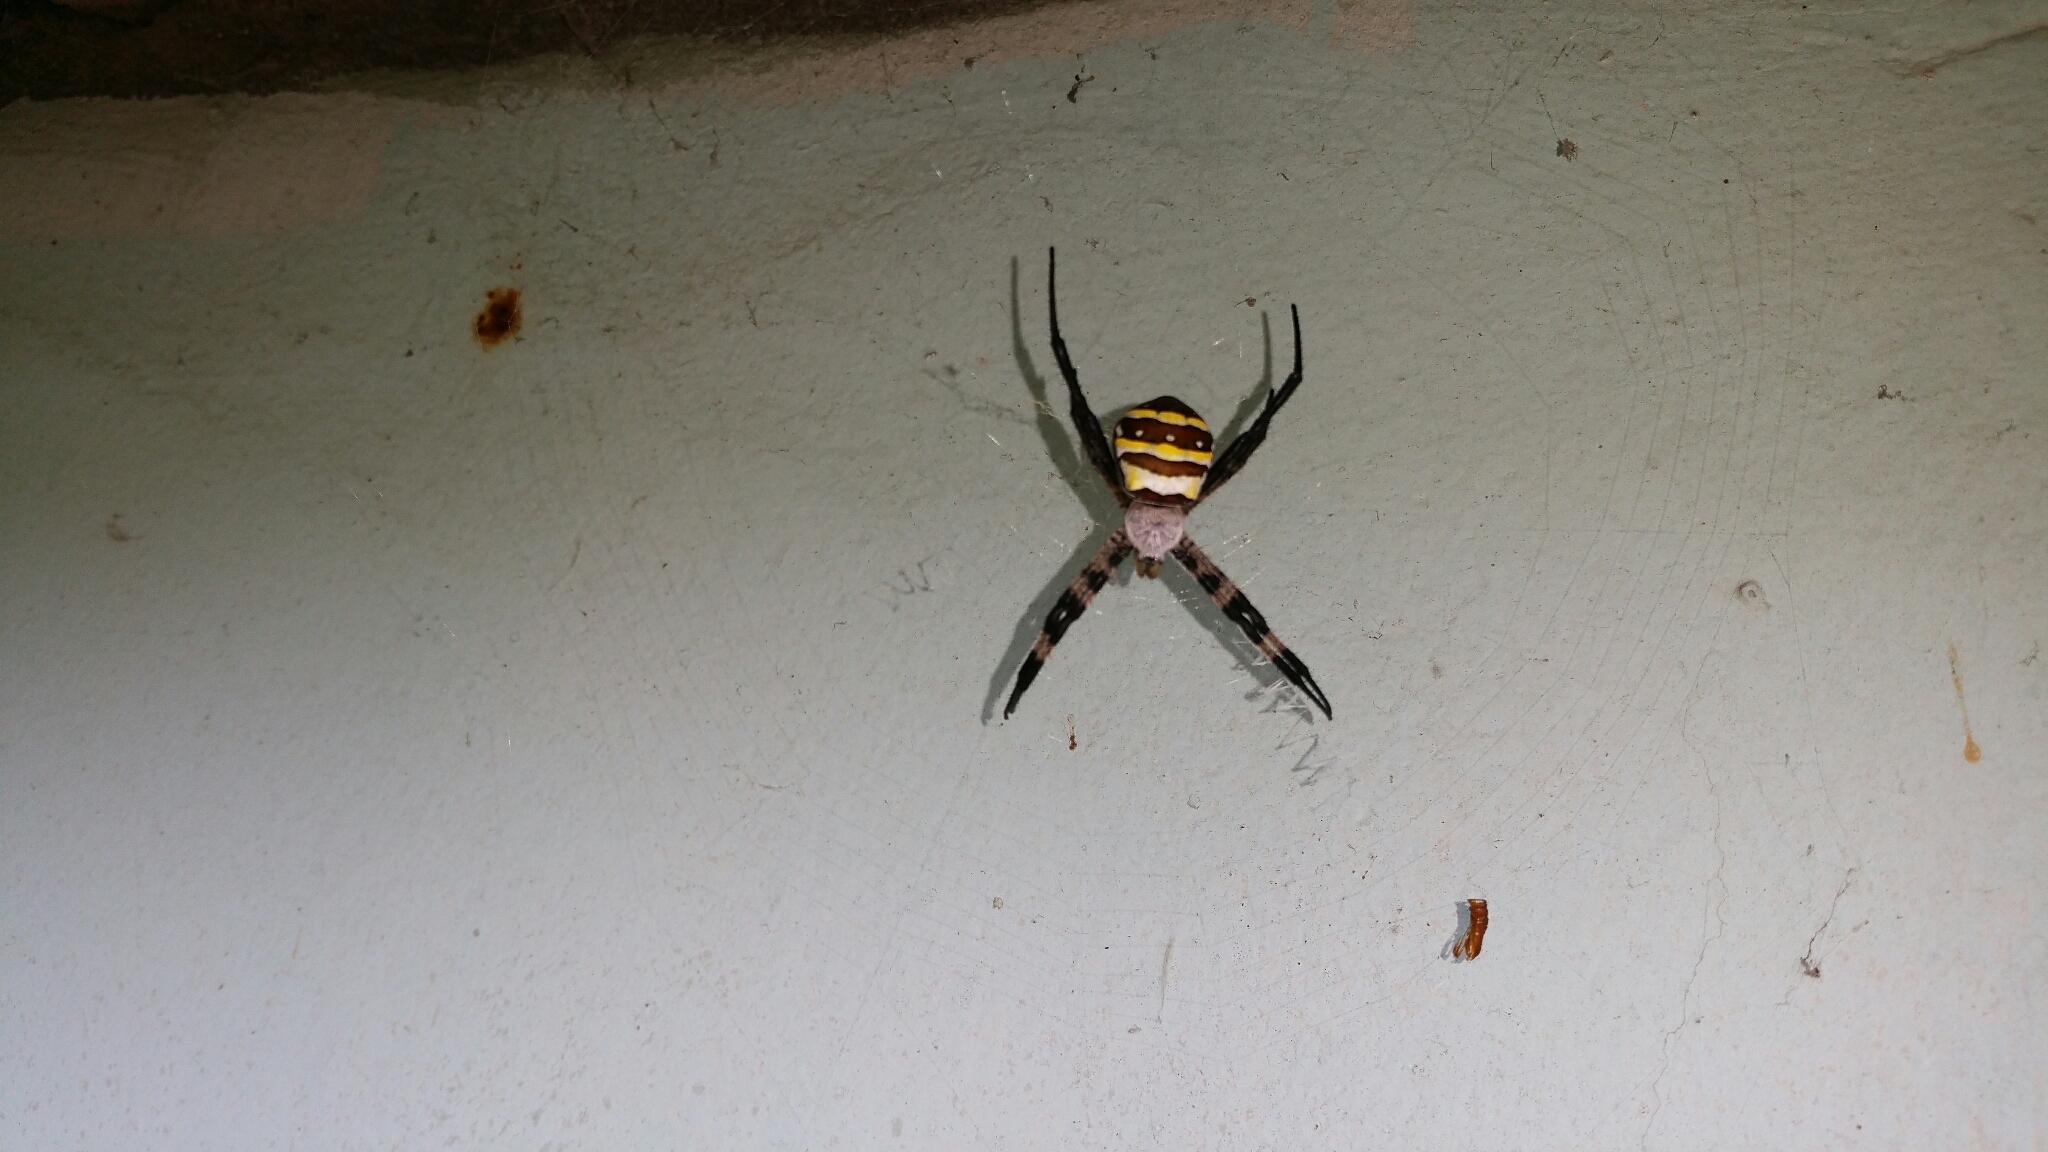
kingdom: Animalia
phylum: Arthropoda
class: Arachnida
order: Araneae
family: Araneidae
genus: Argiope
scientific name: Argiope amoena
